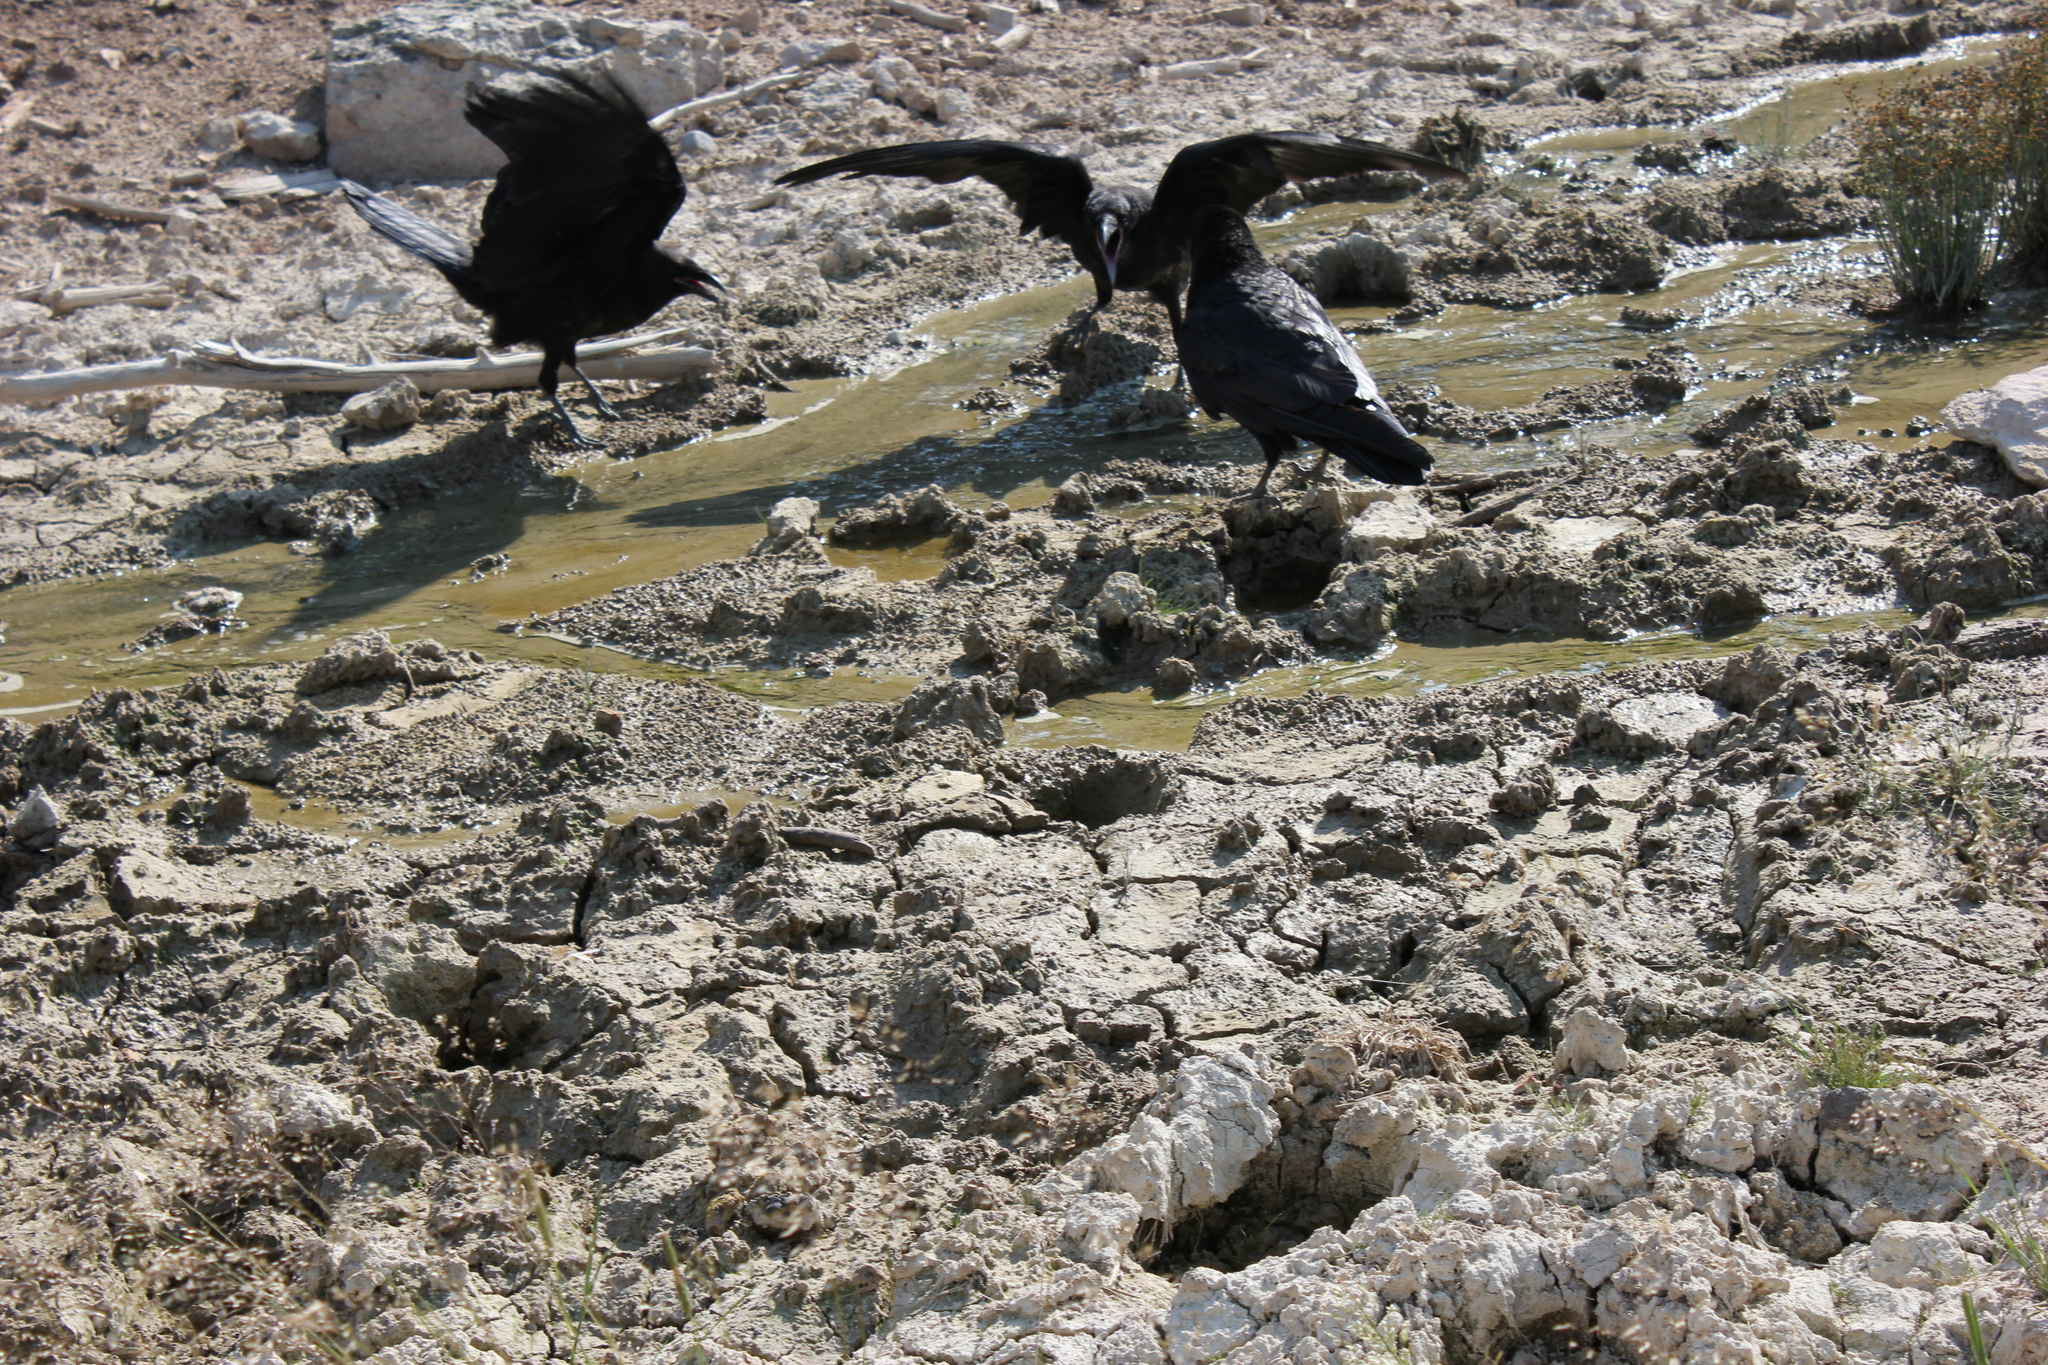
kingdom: Animalia
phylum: Chordata
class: Aves
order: Passeriformes
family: Corvidae
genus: Corvus
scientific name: Corvus corax
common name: Common raven
